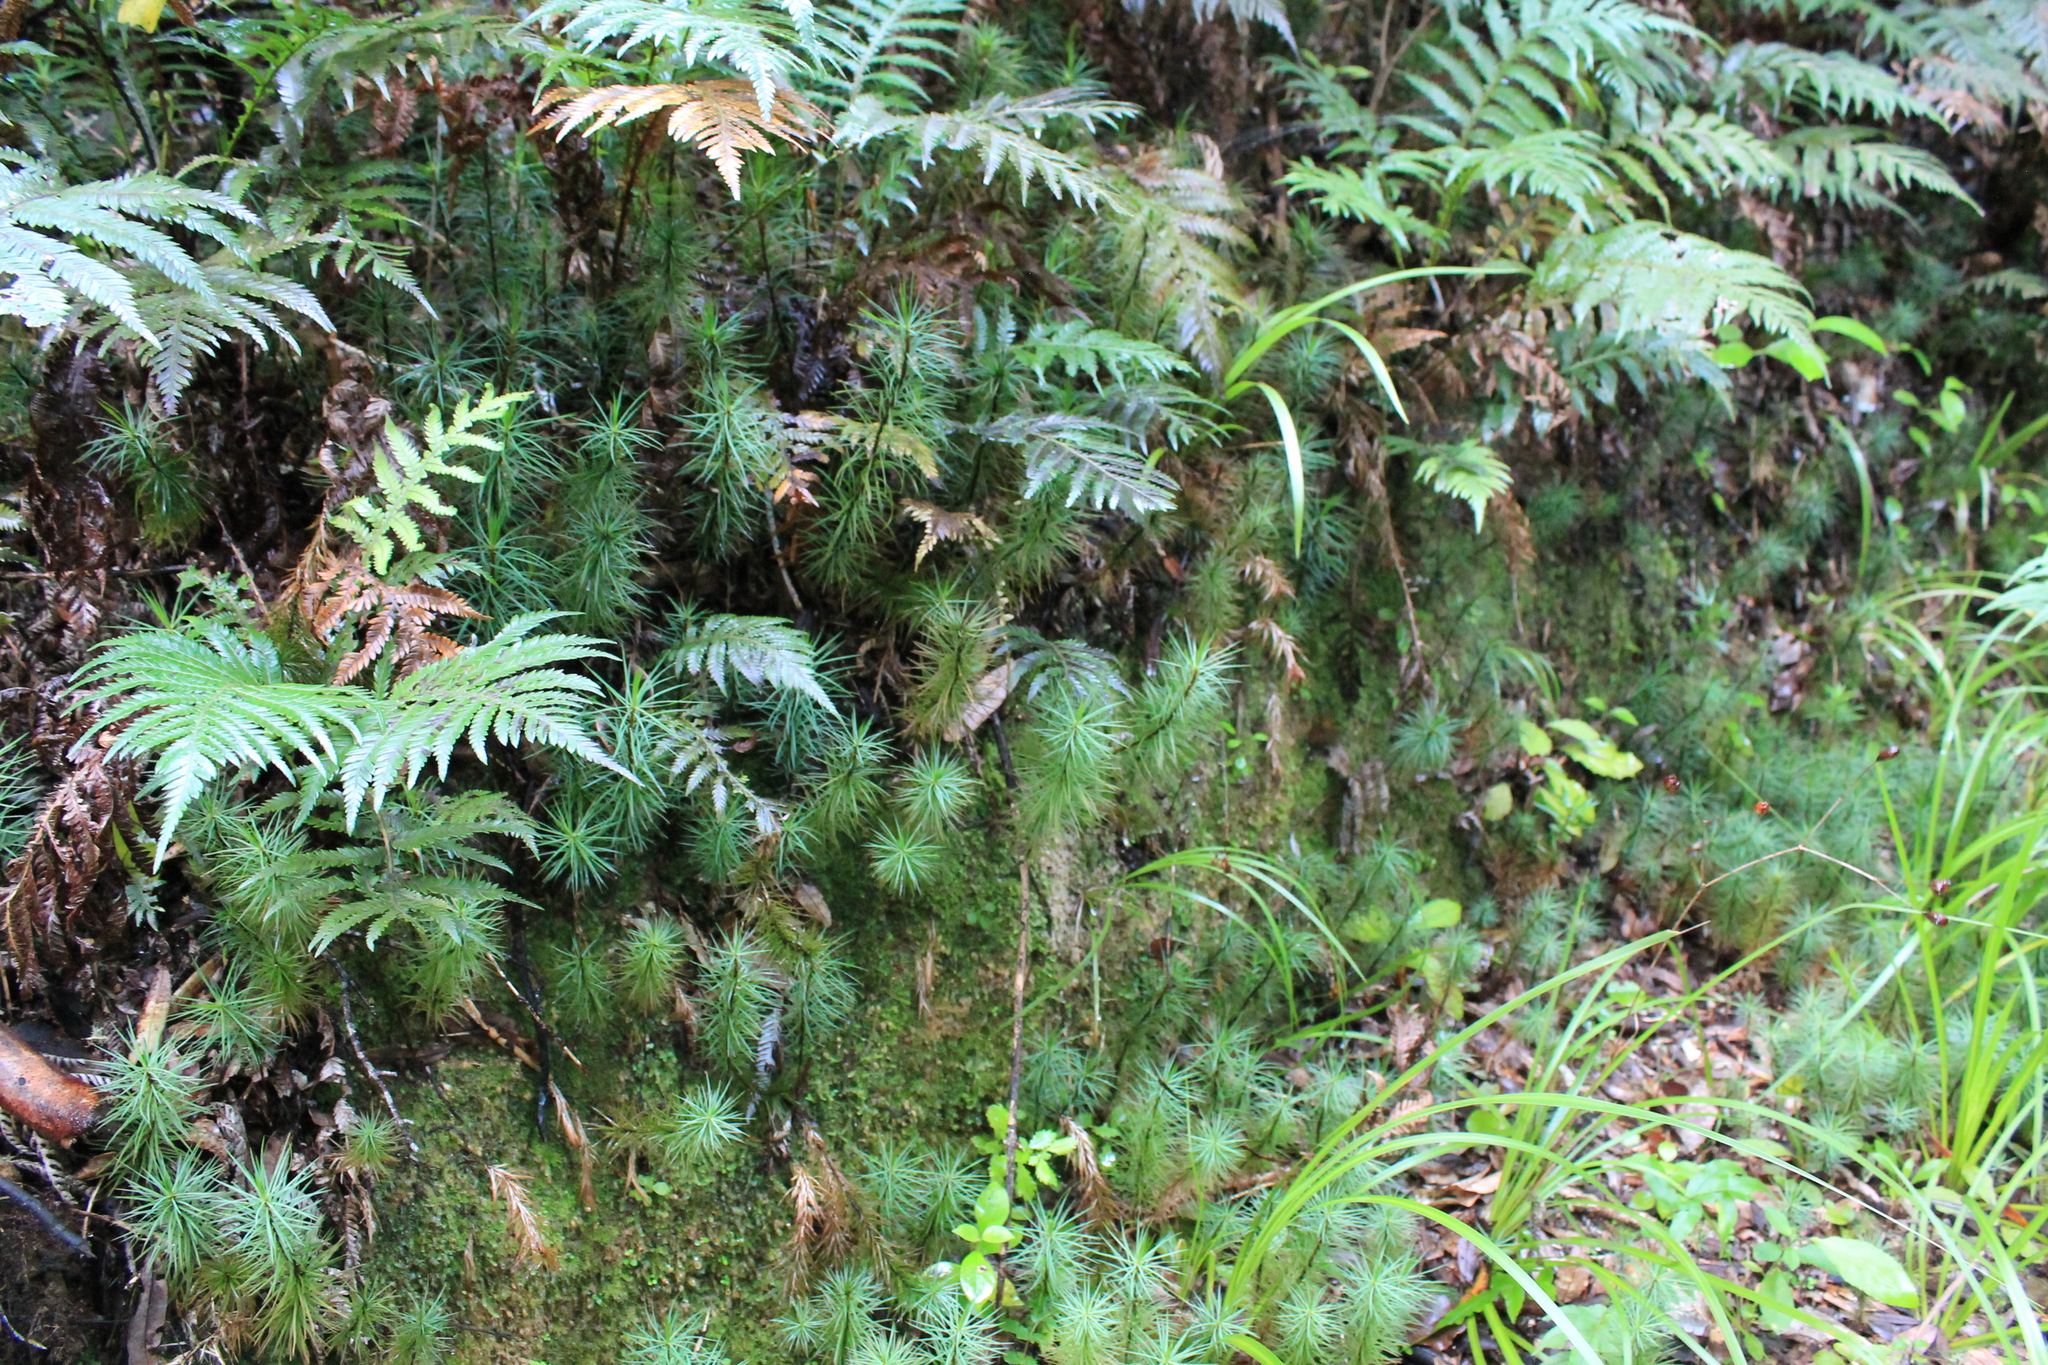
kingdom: Plantae
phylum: Bryophyta
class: Polytrichopsida
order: Polytrichales
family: Polytrichaceae
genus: Dawsonia
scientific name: Dawsonia superba
